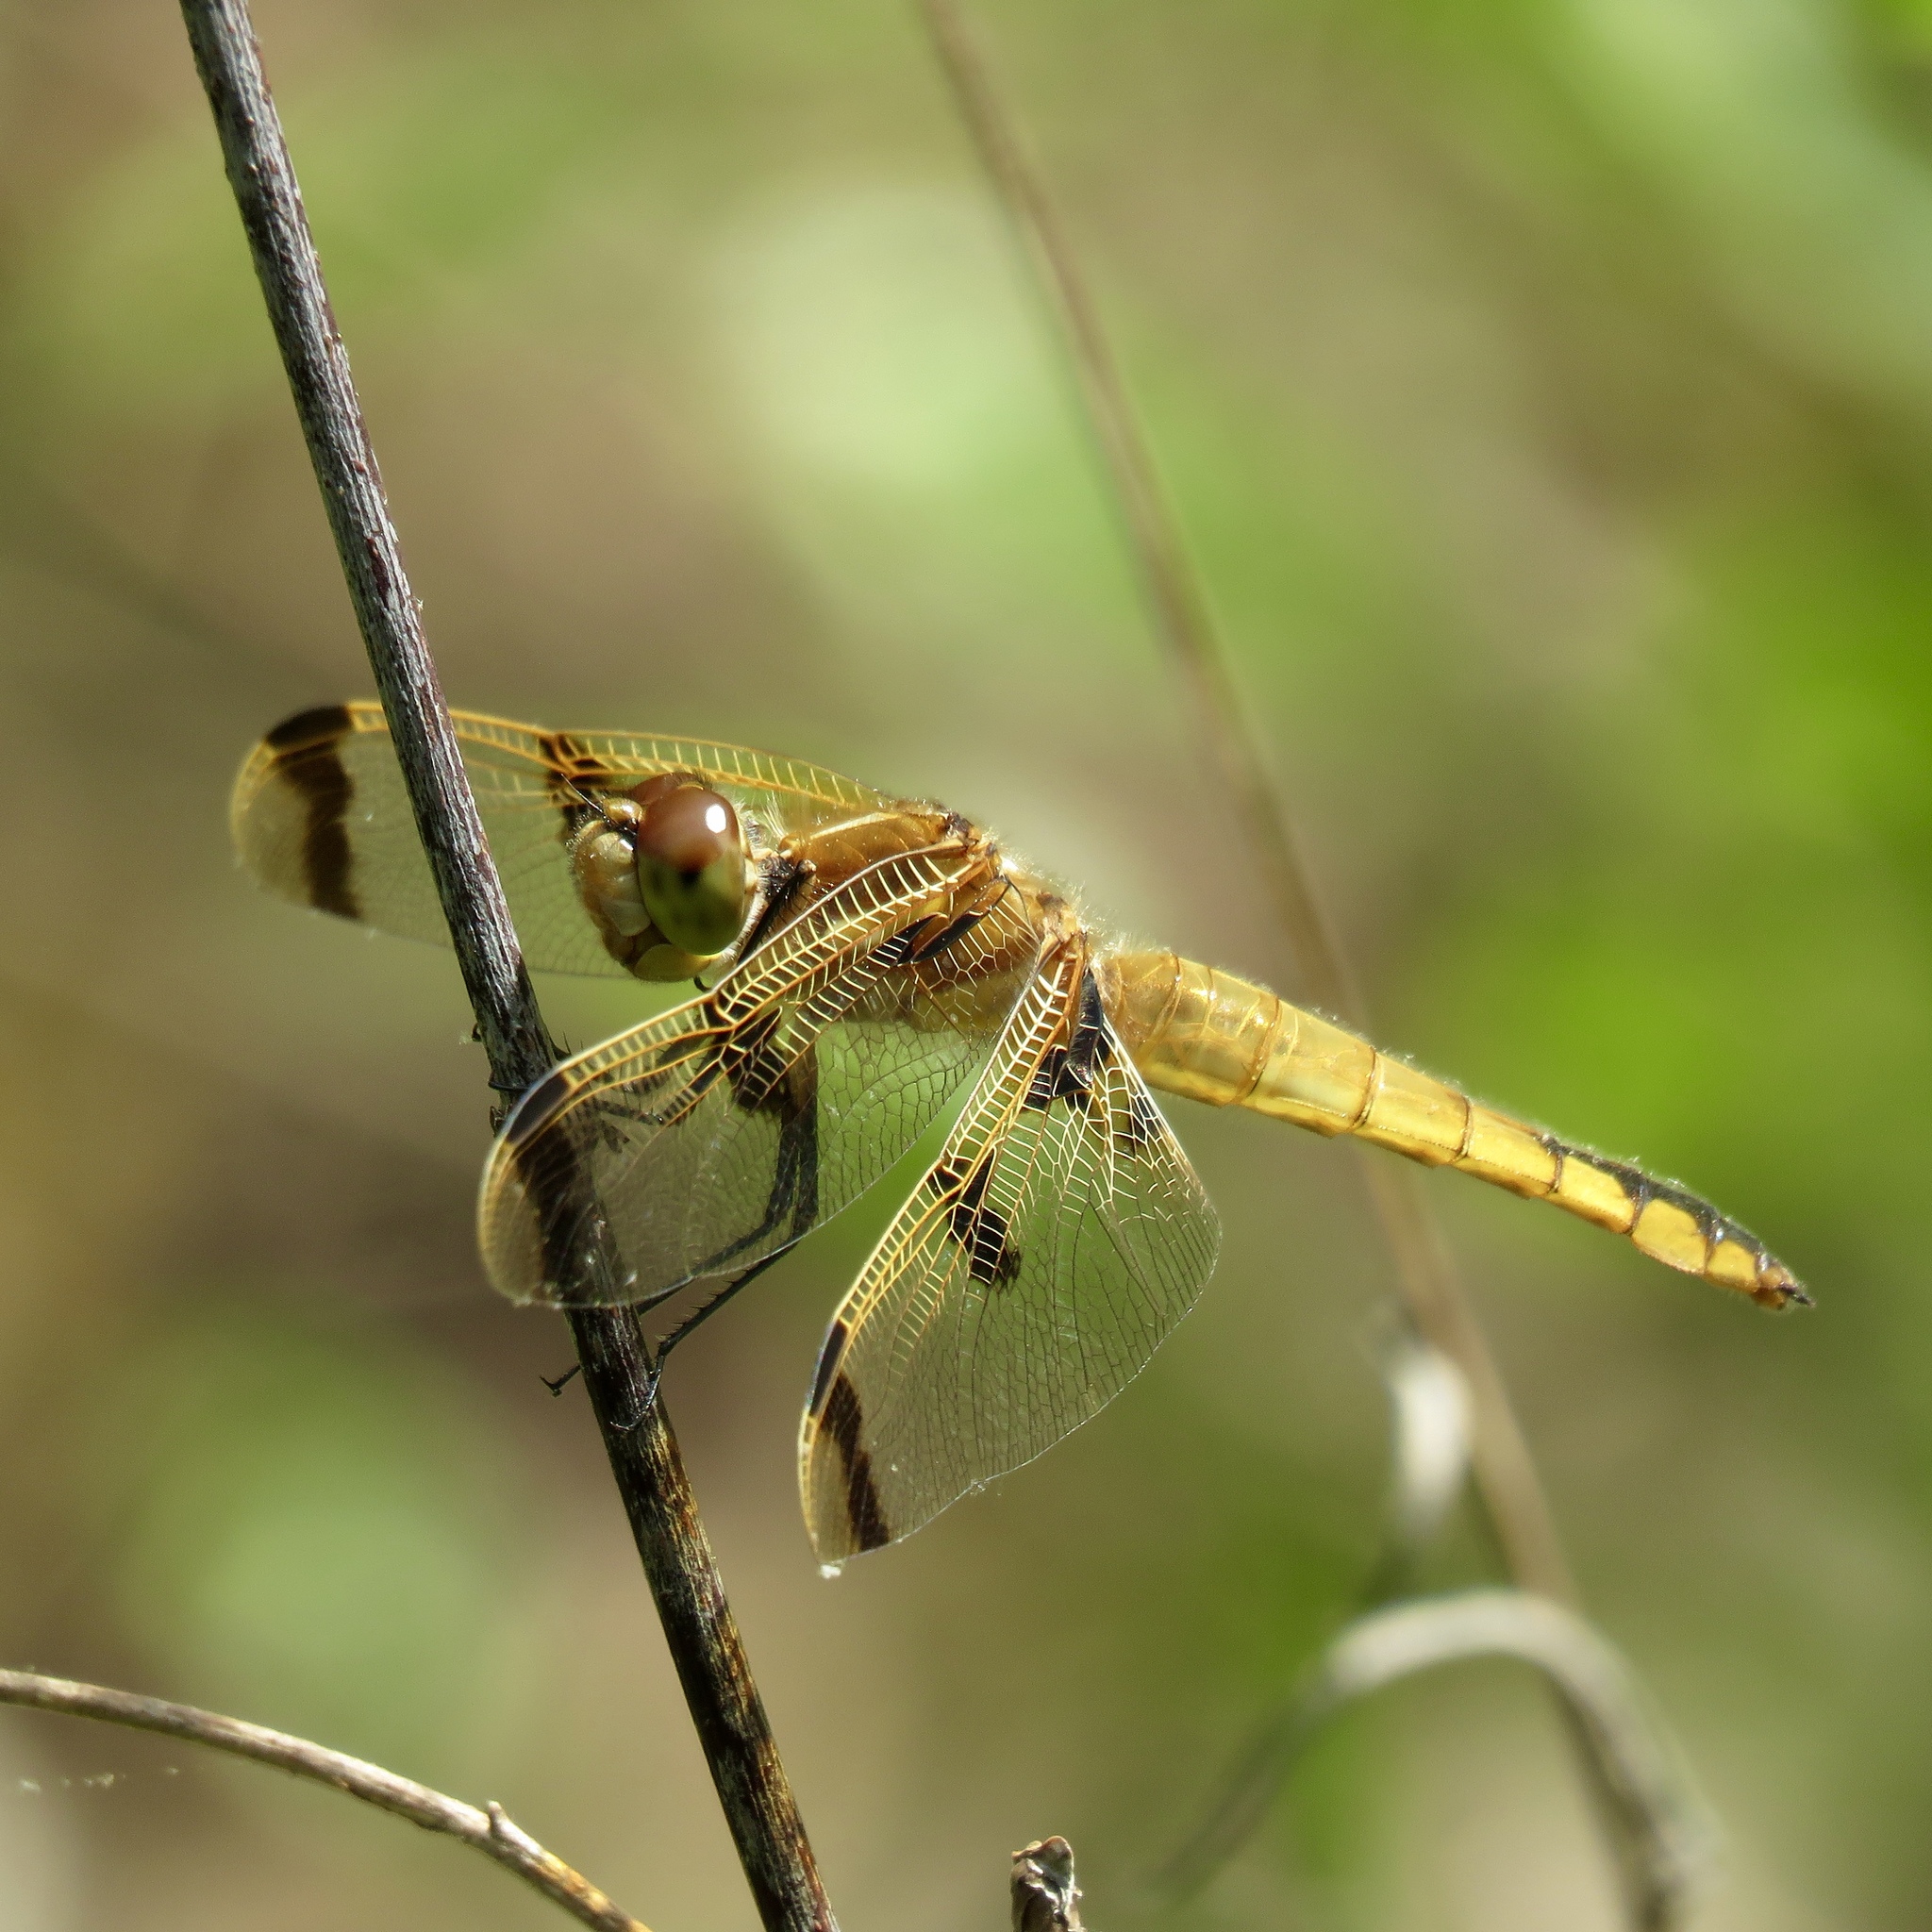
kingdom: Animalia
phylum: Arthropoda
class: Insecta
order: Odonata
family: Libellulidae
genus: Libellula
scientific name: Libellula semifasciata
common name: Painted skimmer
